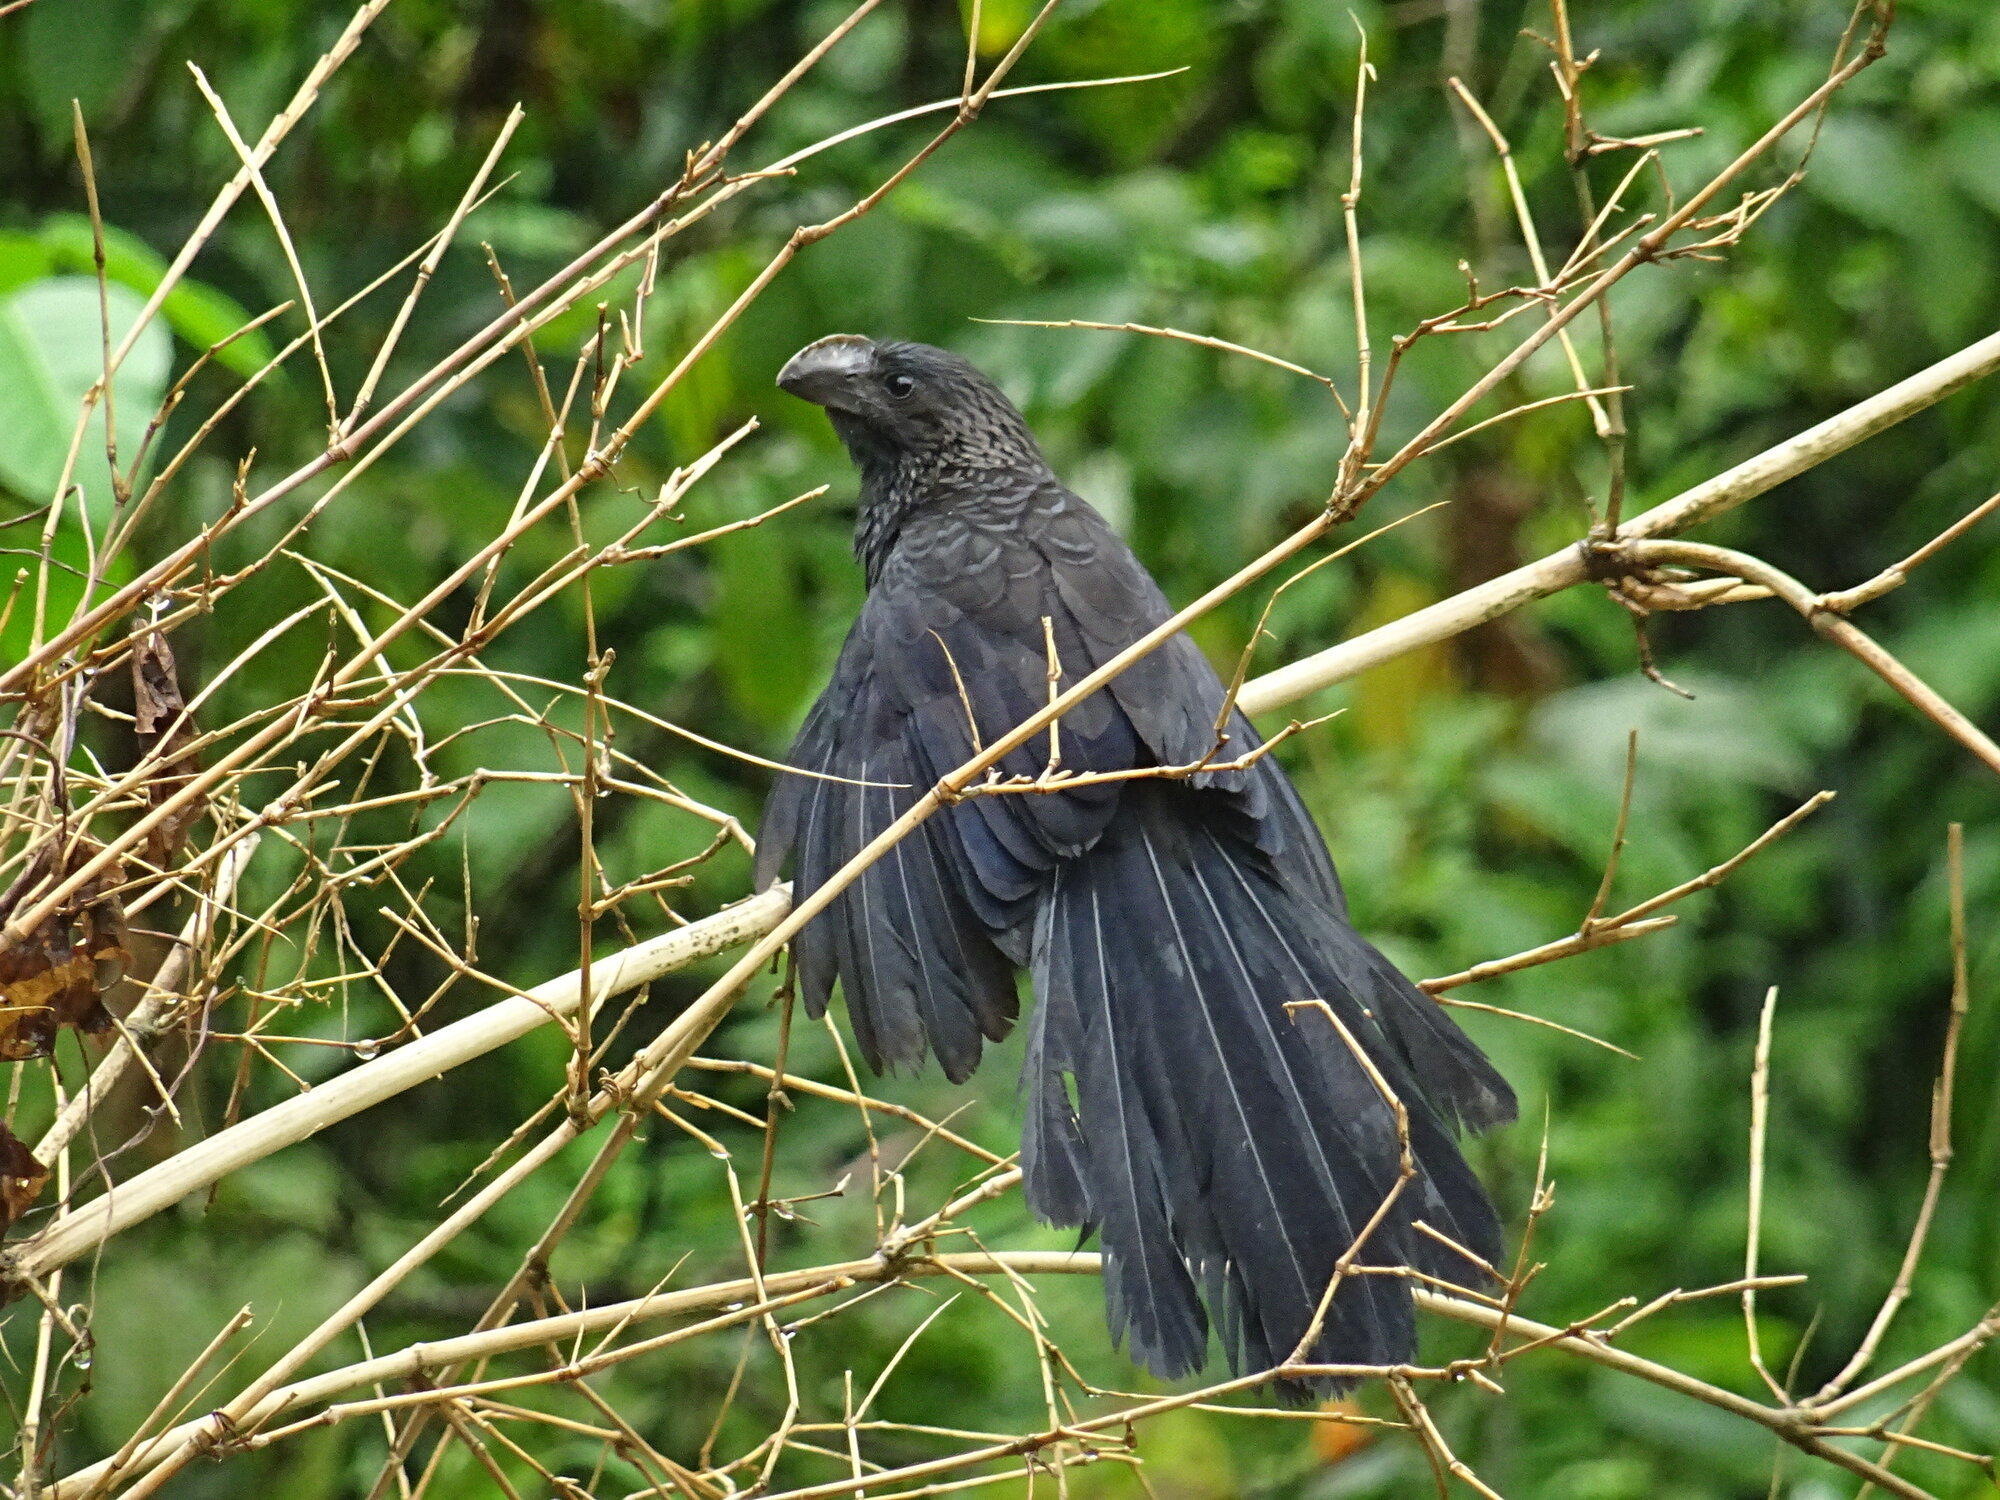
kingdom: Animalia
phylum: Chordata
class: Aves
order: Cuculiformes
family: Cuculidae
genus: Crotophaga
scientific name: Crotophaga ani
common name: Smooth-billed ani
